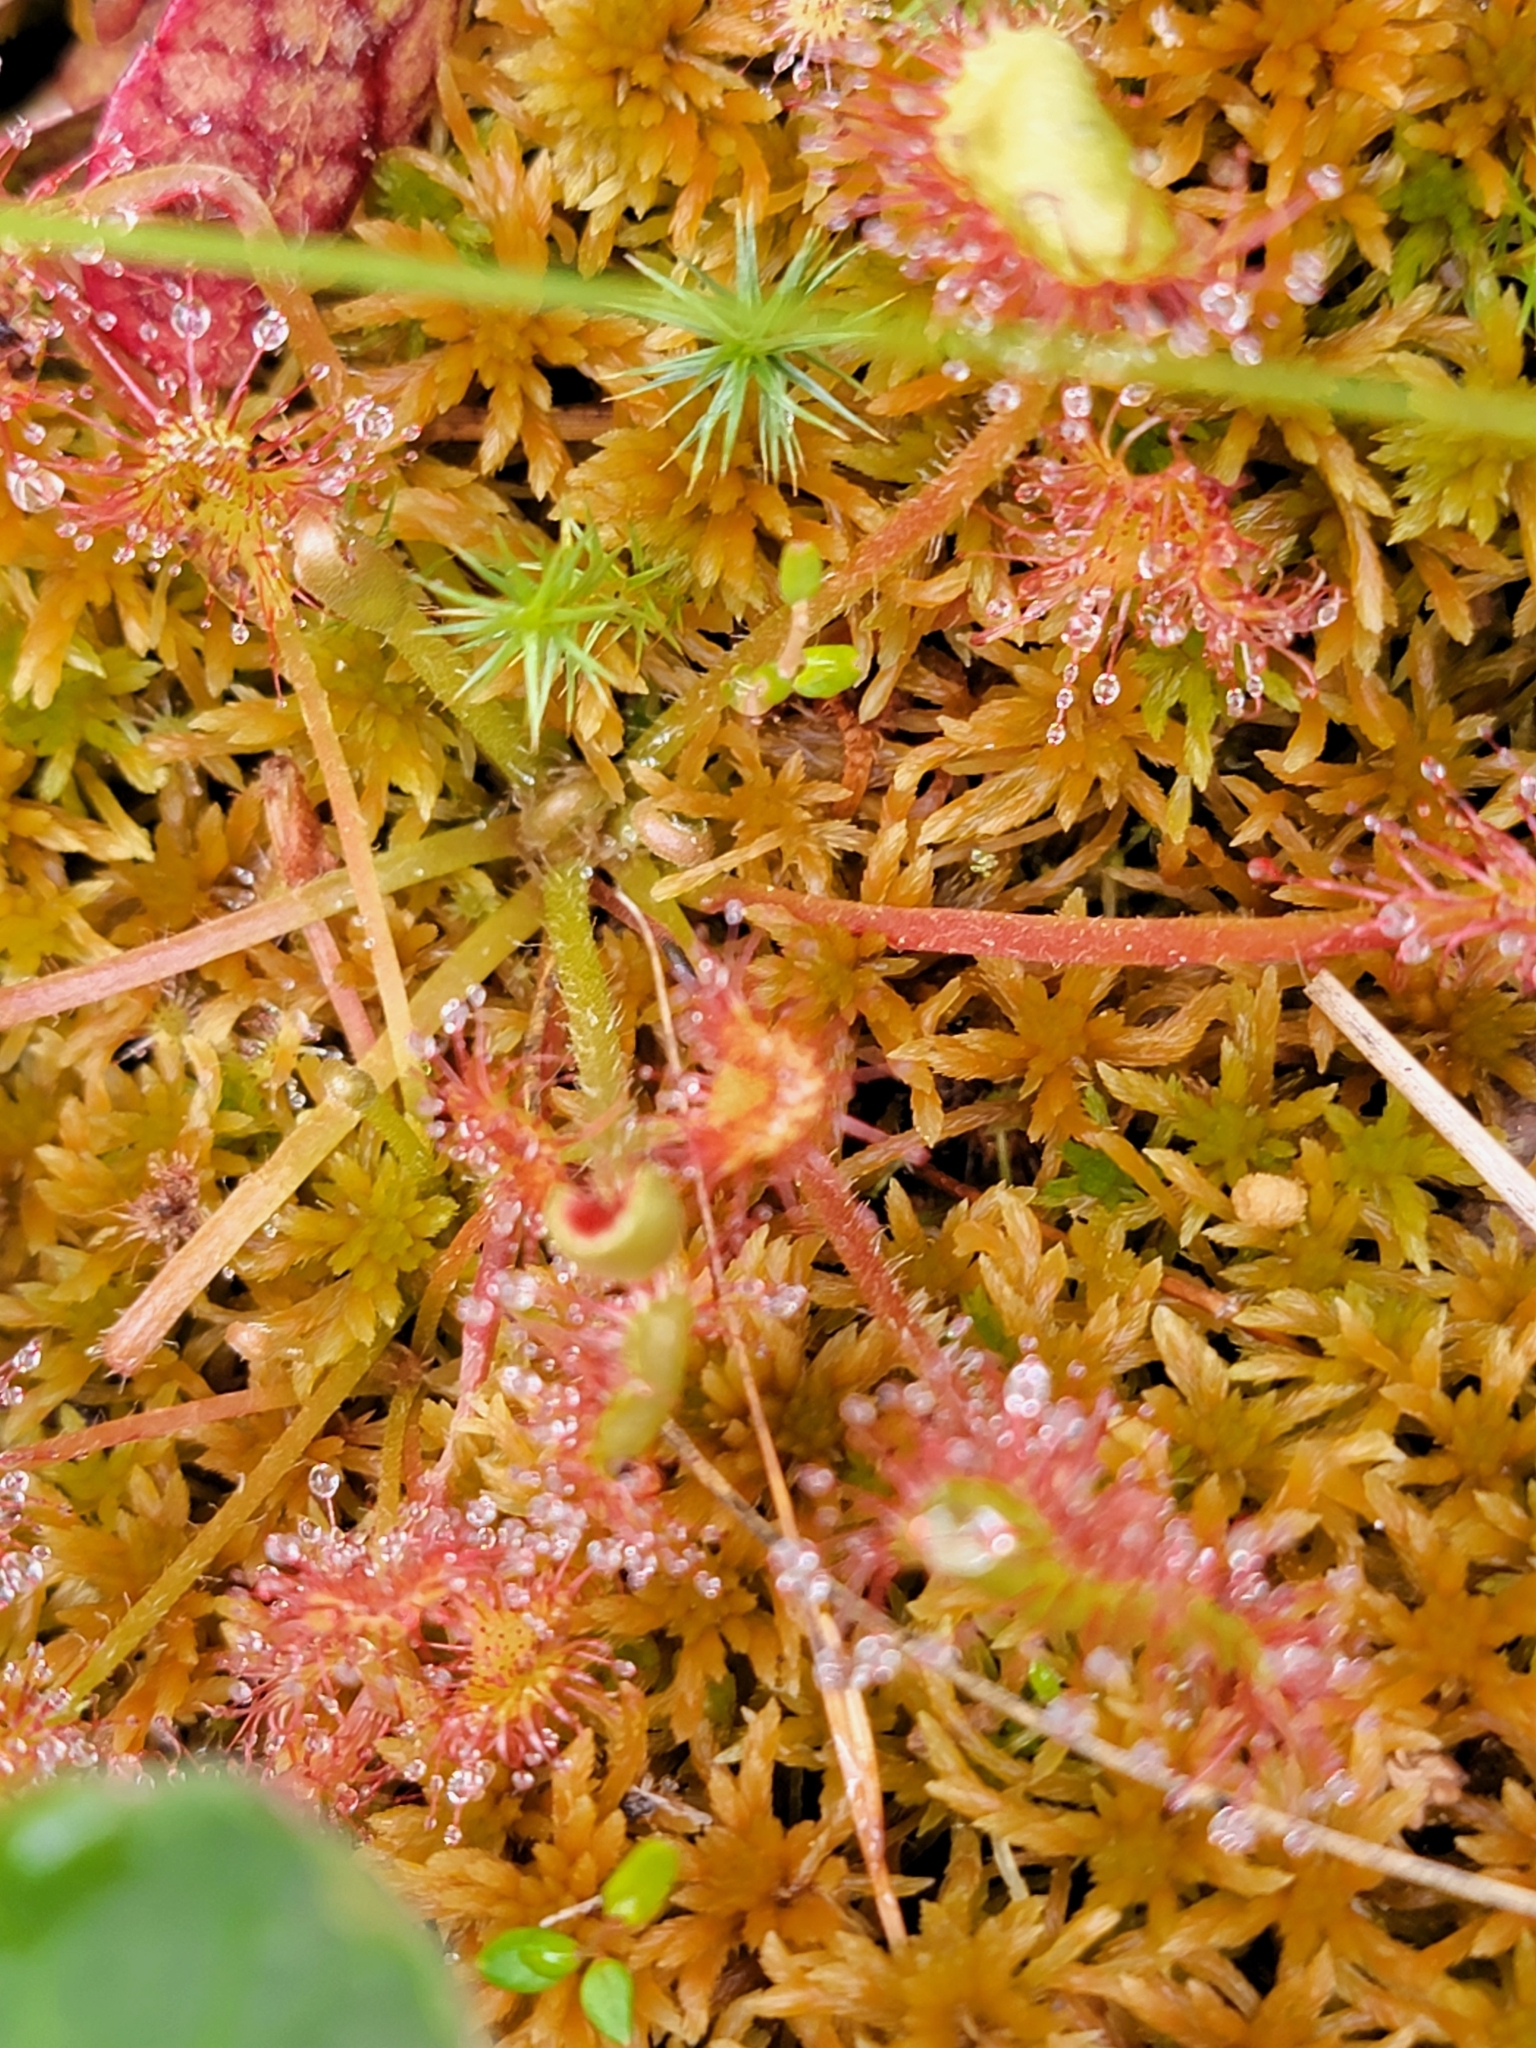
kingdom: Plantae
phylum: Tracheophyta
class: Magnoliopsida
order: Caryophyllales
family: Droseraceae
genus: Drosera
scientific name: Drosera rotundifolia
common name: Round-leaved sundew
